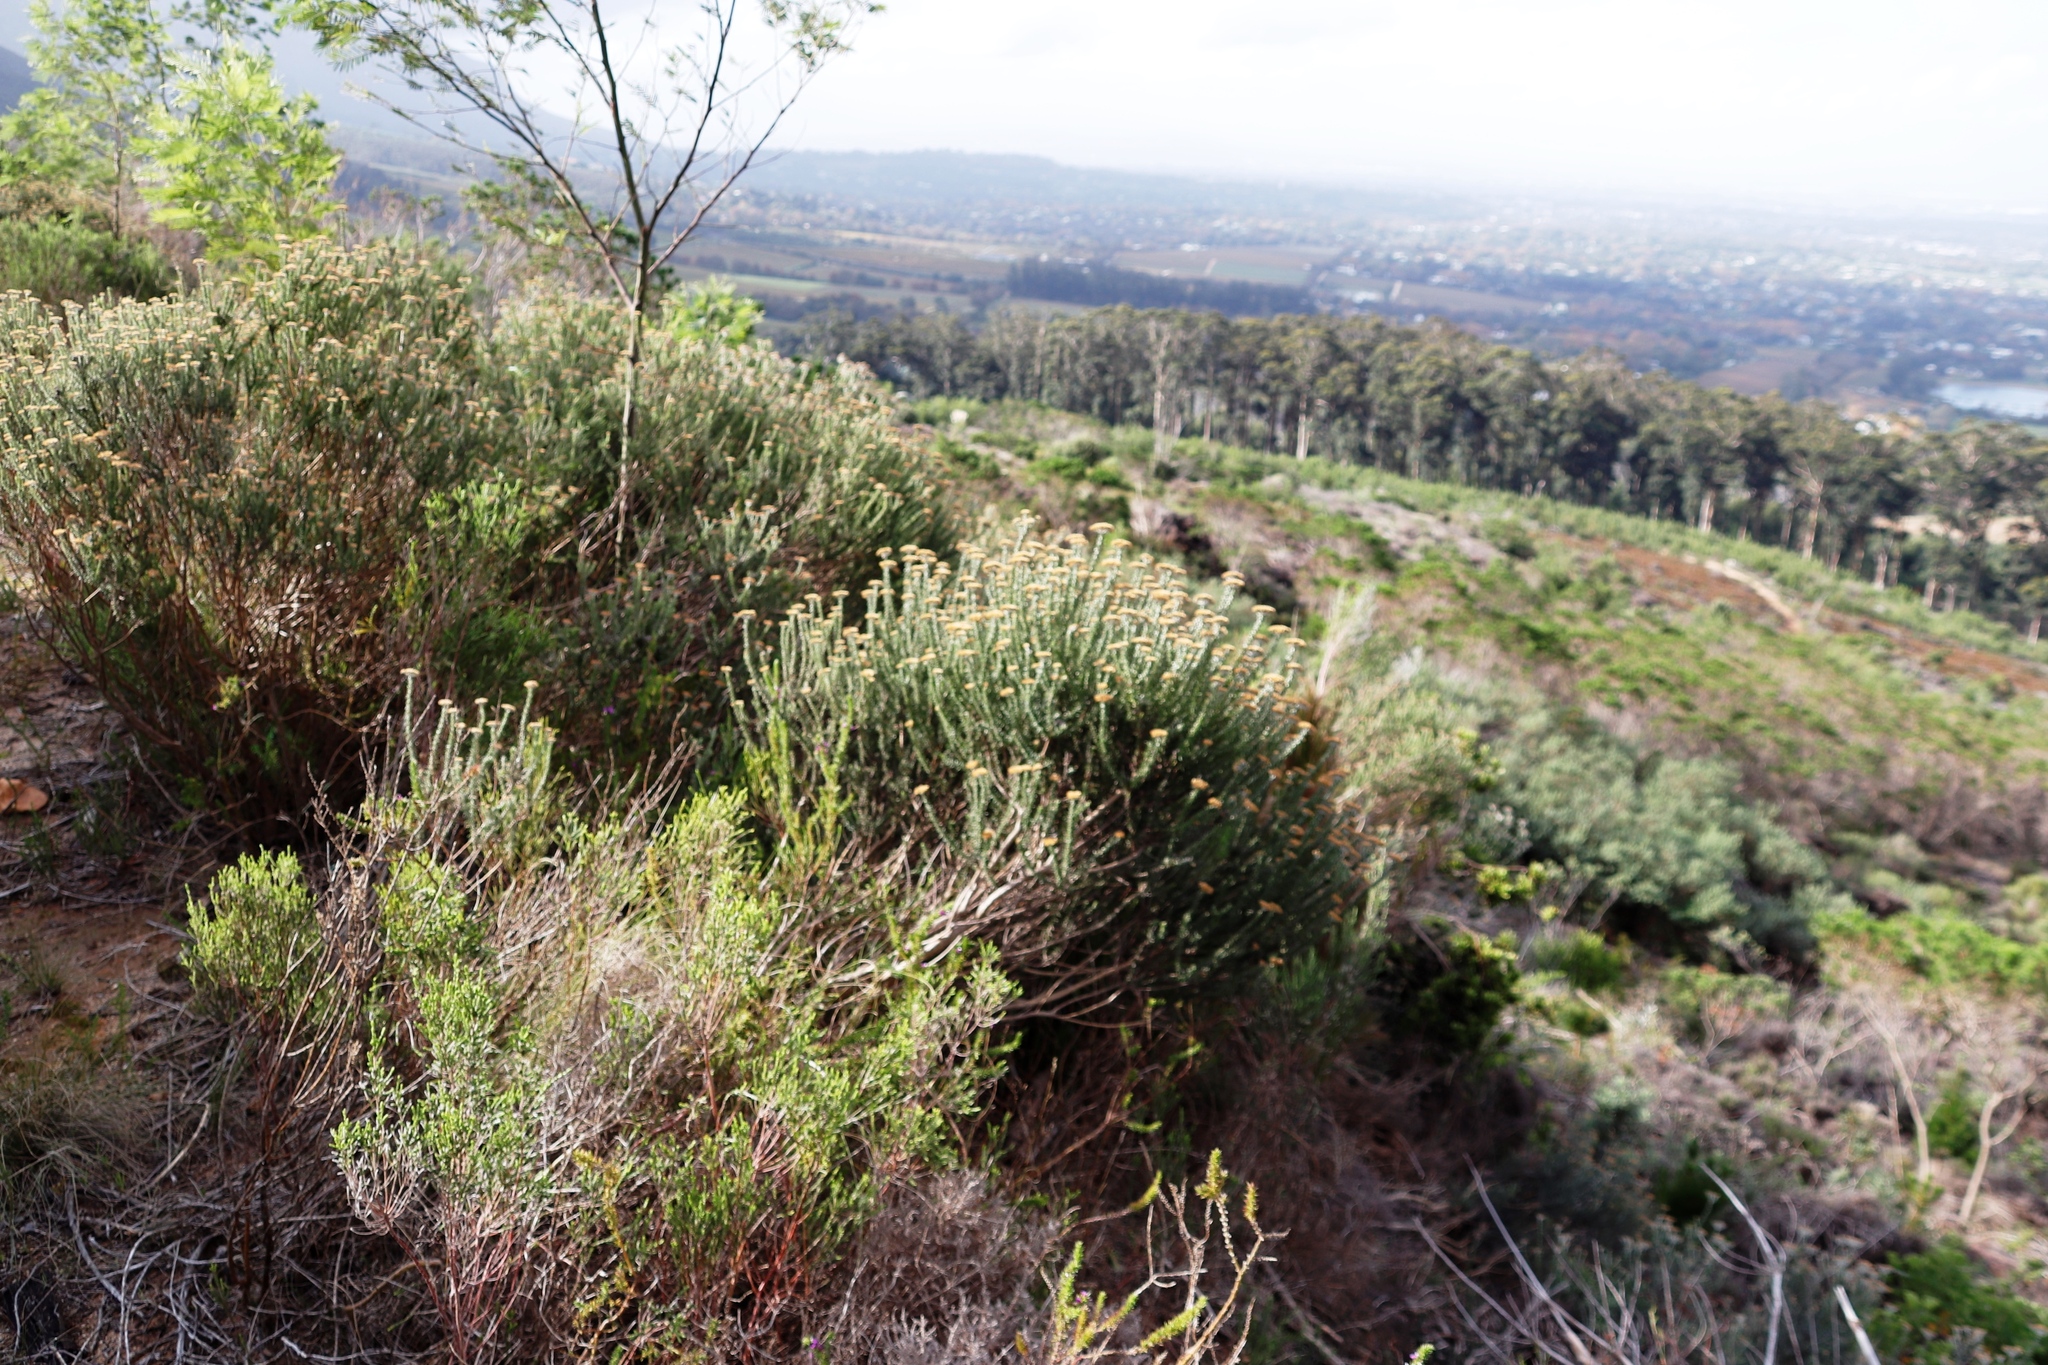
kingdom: Plantae
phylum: Tracheophyta
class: Magnoliopsida
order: Asterales
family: Asteraceae
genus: Metalasia
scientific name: Metalasia densa
